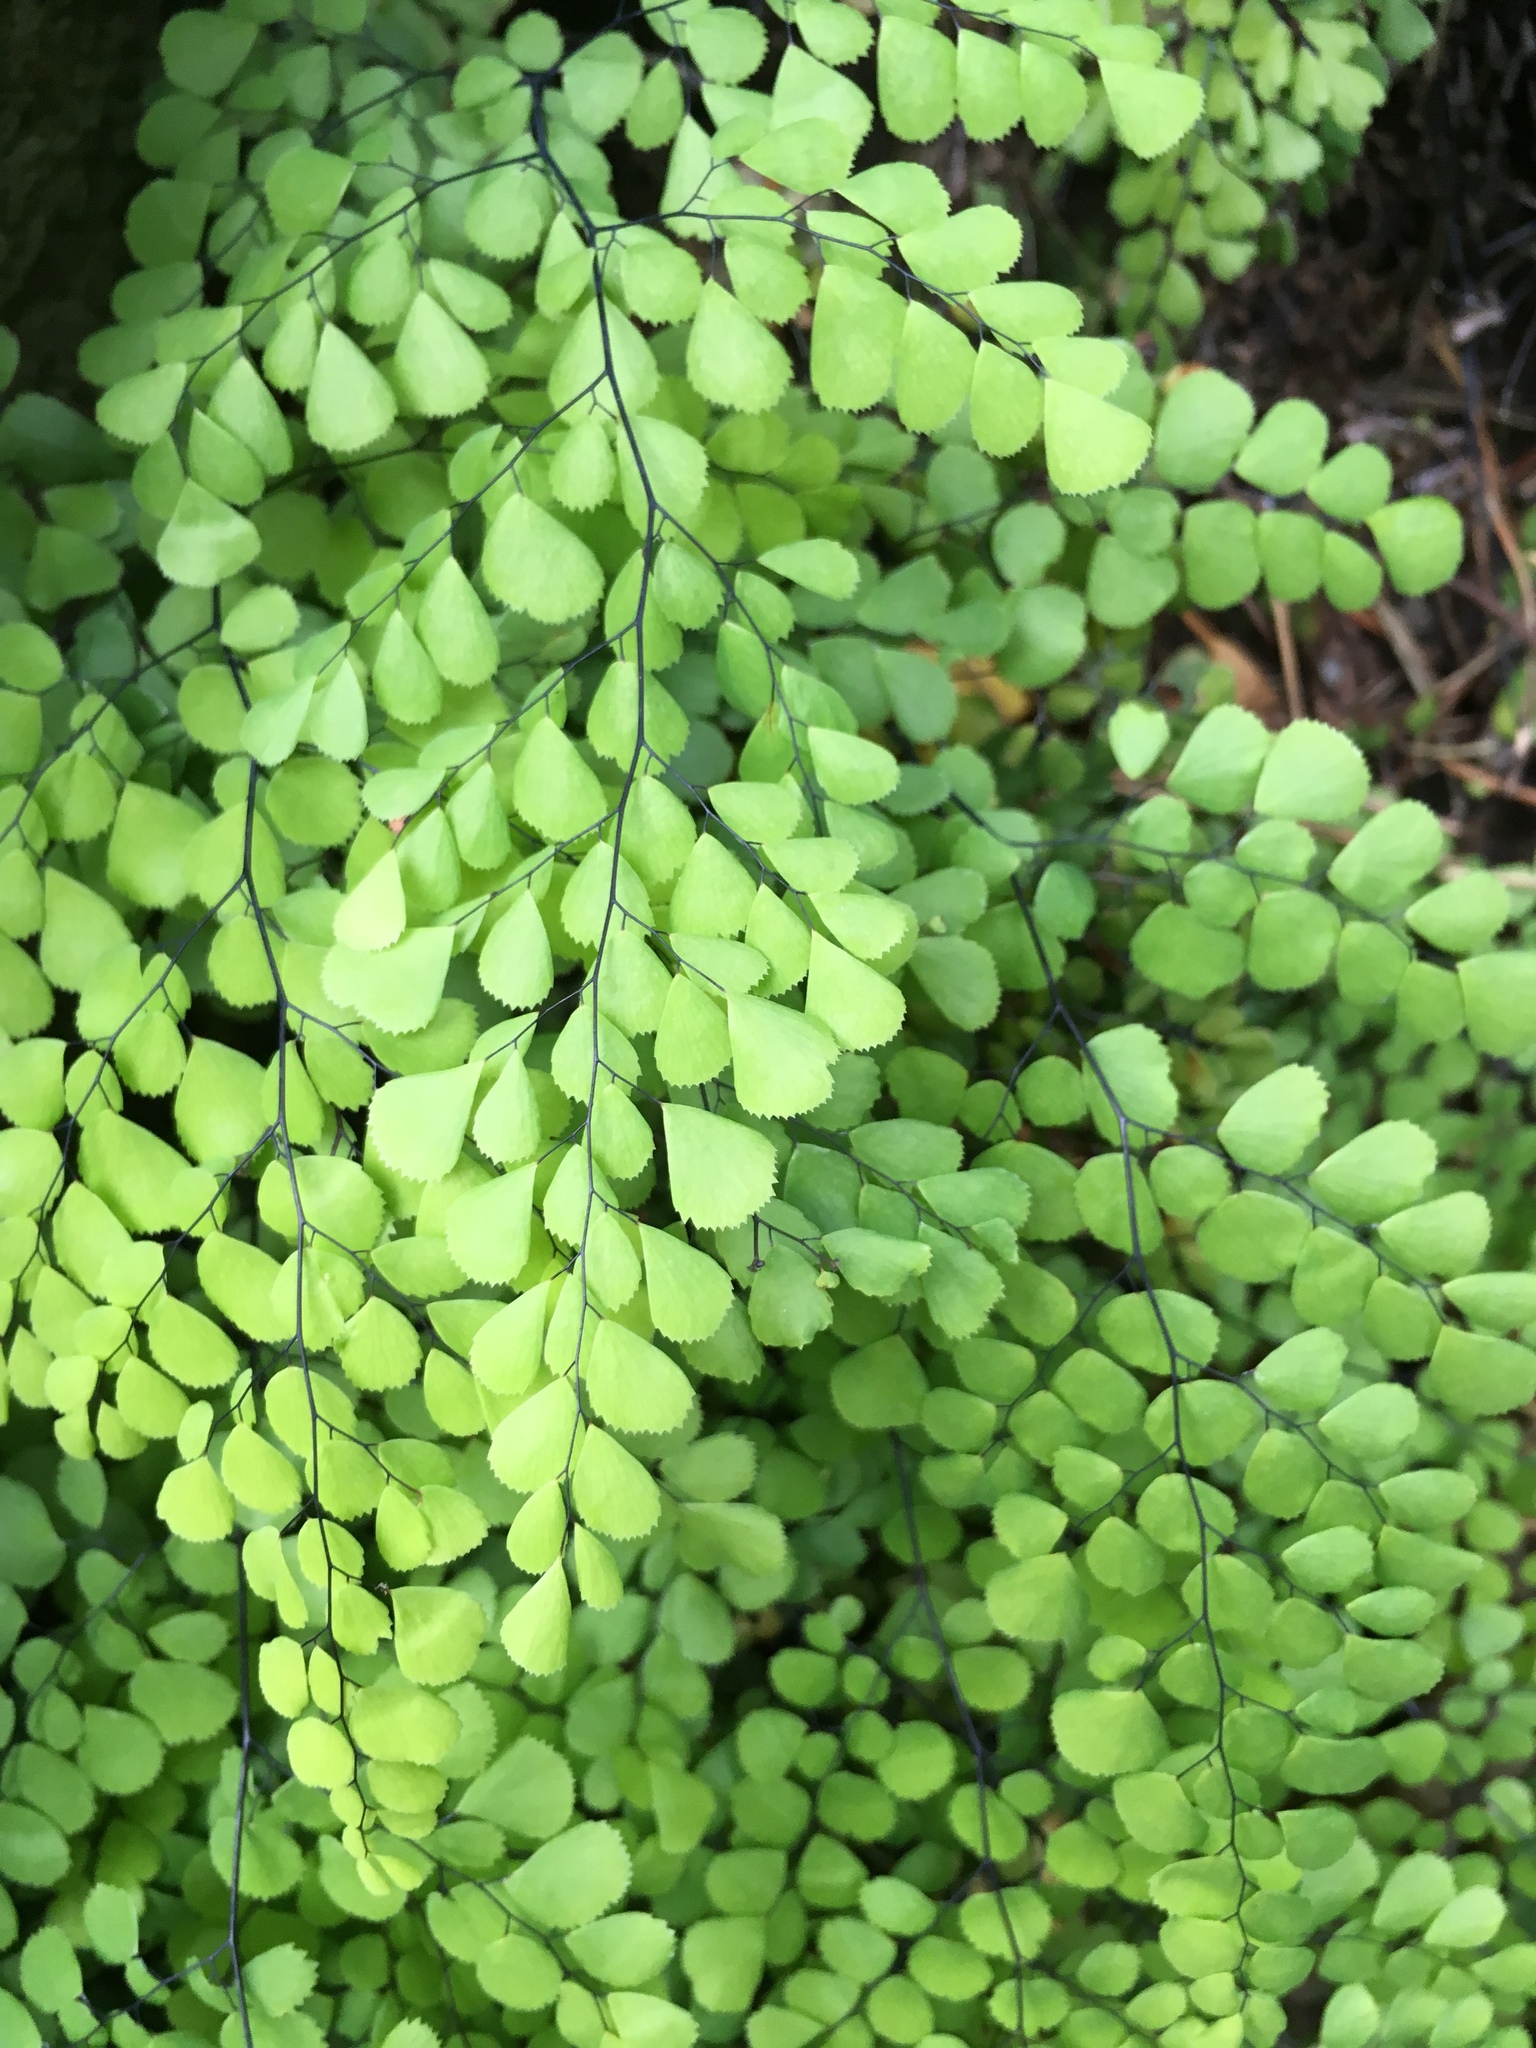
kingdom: Plantae
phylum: Tracheophyta
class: Polypodiopsida
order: Polypodiales
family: Pteridaceae
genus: Adiantum
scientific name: Adiantum venustum
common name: Evergreen maidenhair
